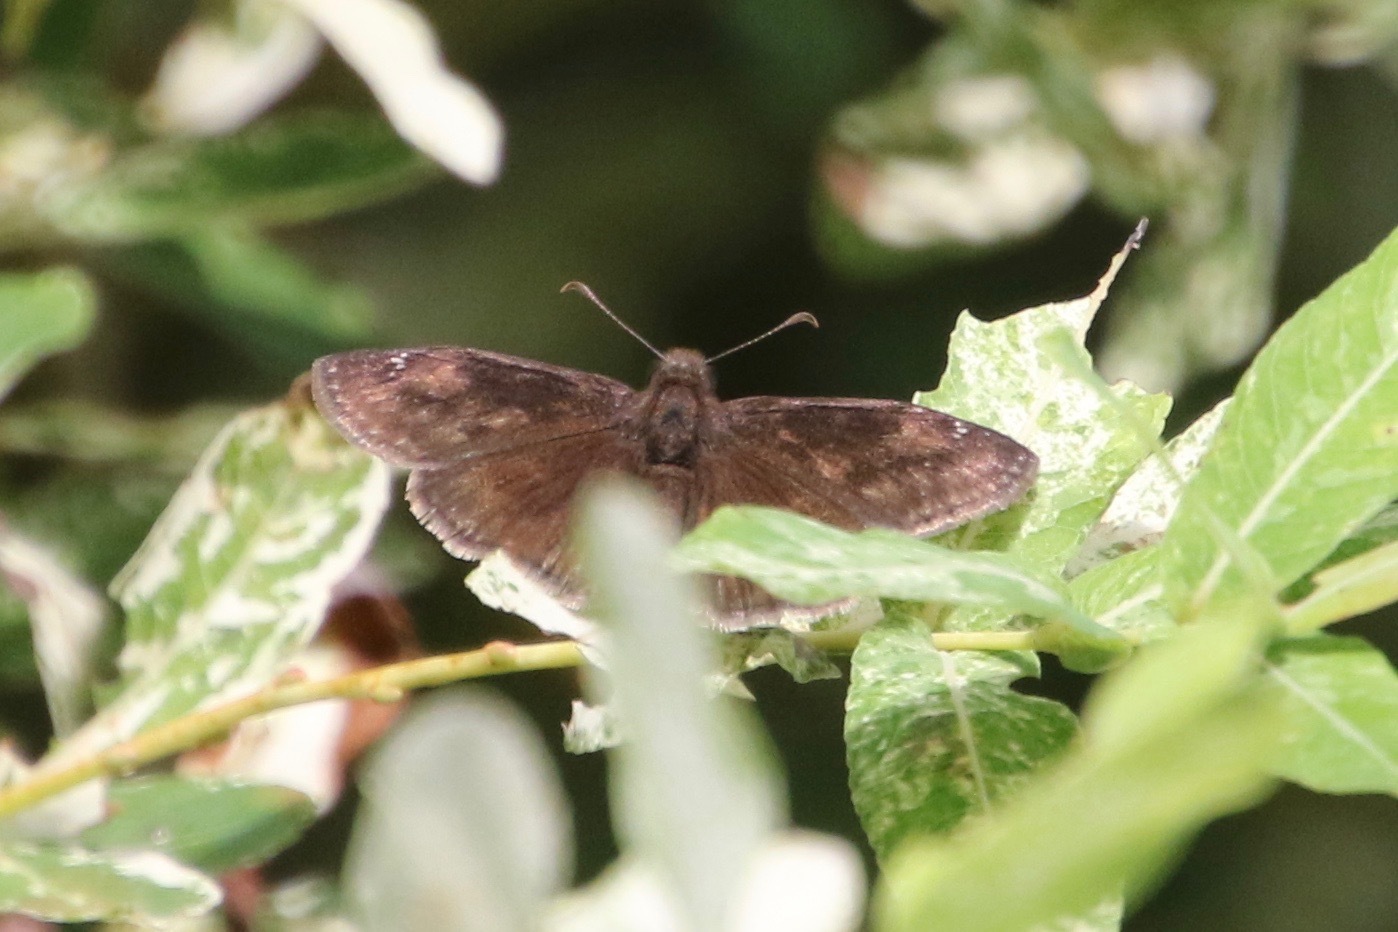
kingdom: Animalia
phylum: Arthropoda
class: Insecta
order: Lepidoptera
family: Hesperiidae
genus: Erynnis
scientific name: Erynnis baptisiae
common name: Wild indigo duskywing
